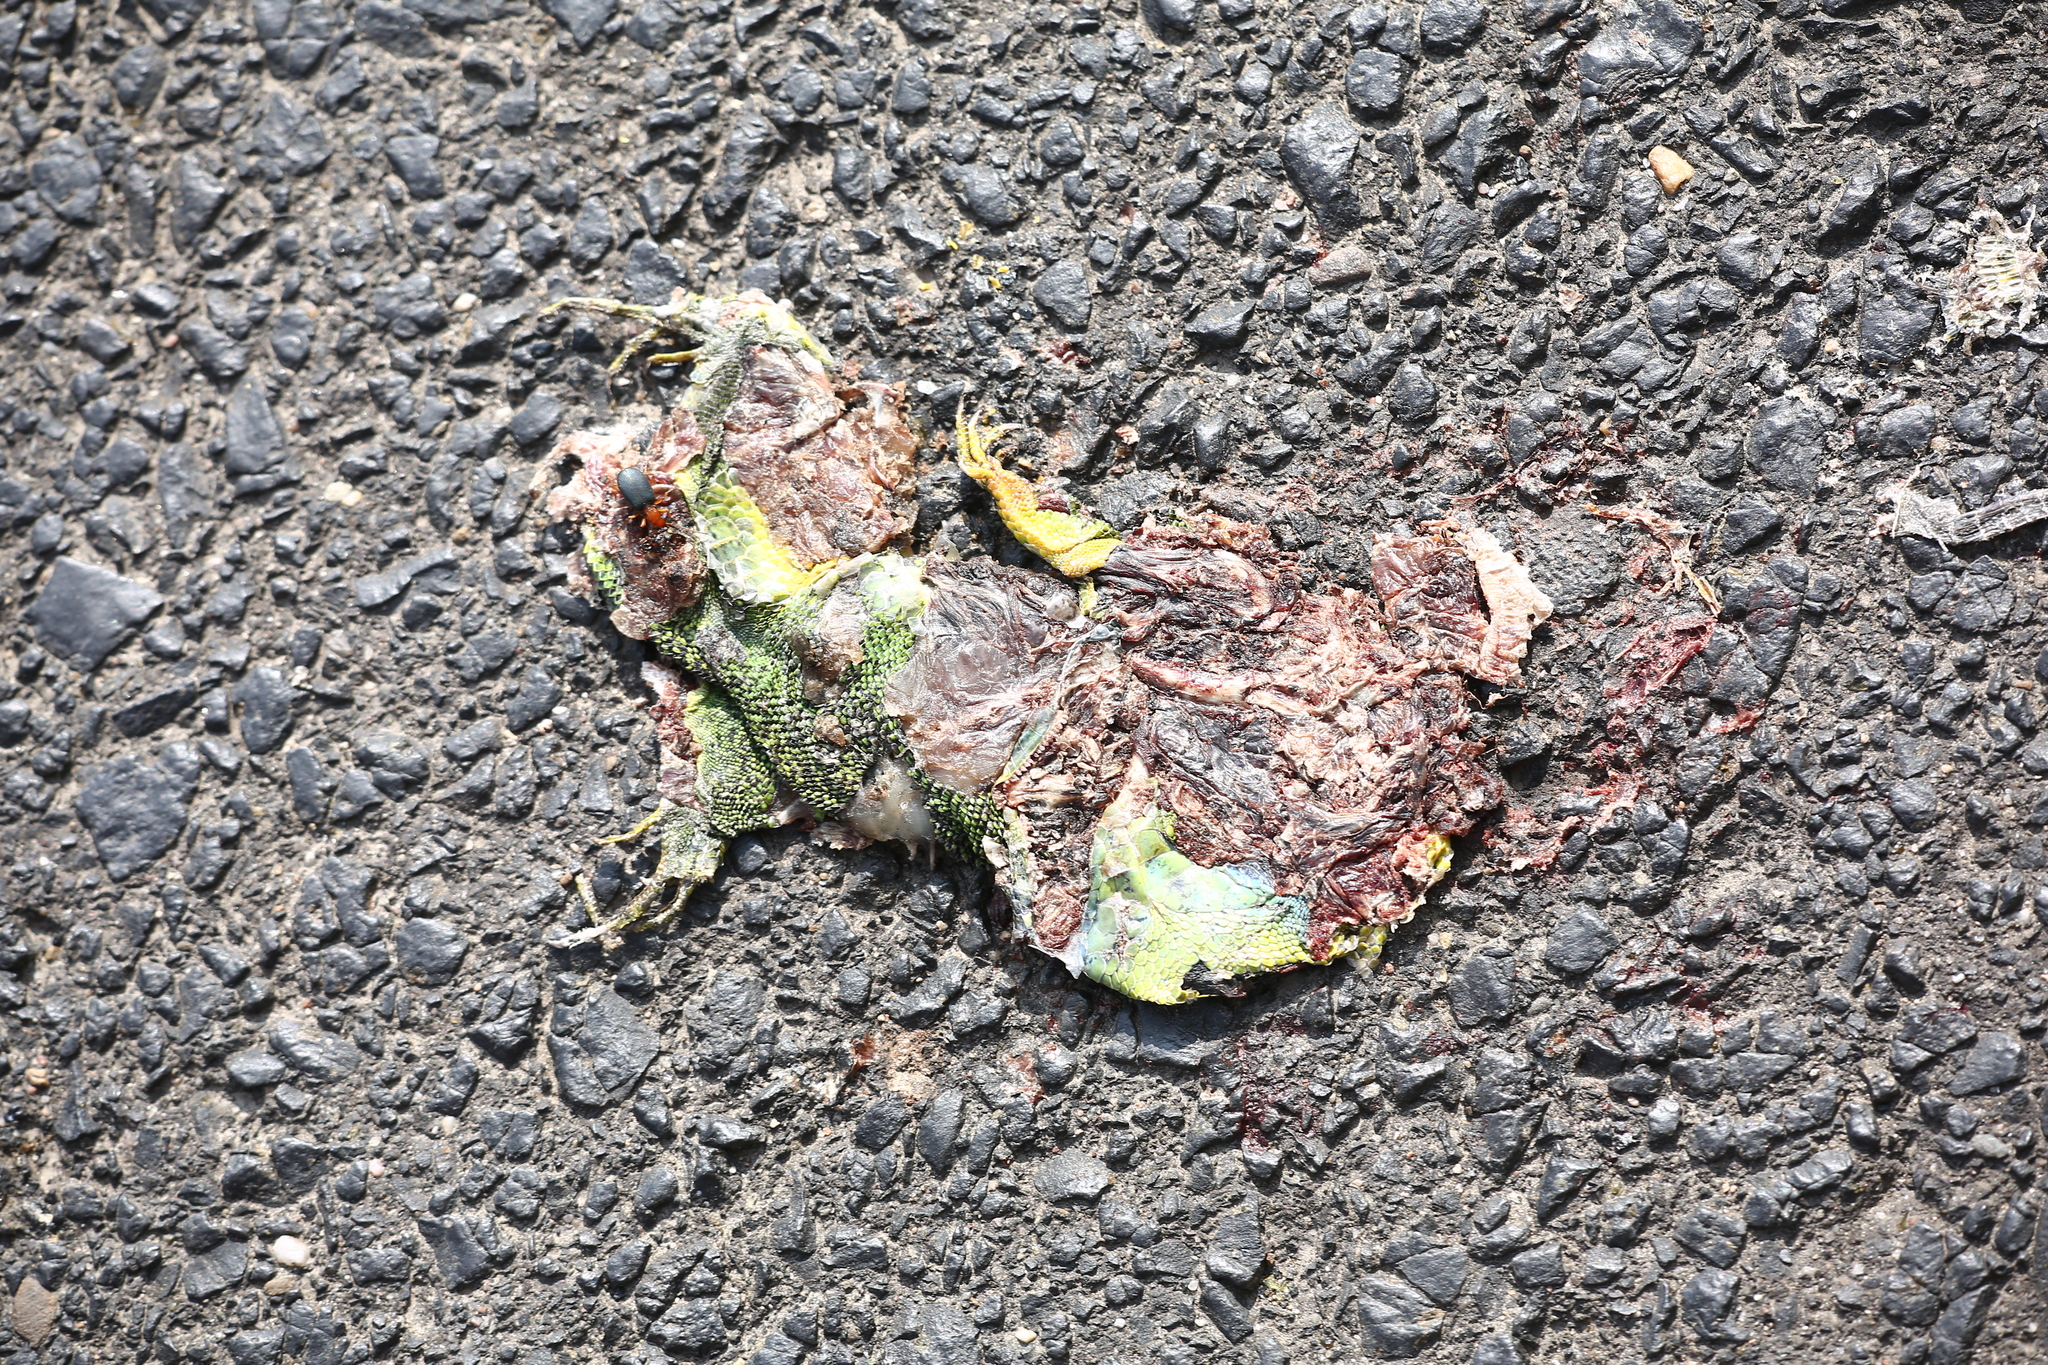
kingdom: Animalia
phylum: Chordata
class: Squamata
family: Lacertidae
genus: Lacerta
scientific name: Lacerta bilineata
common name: Western green lizard
